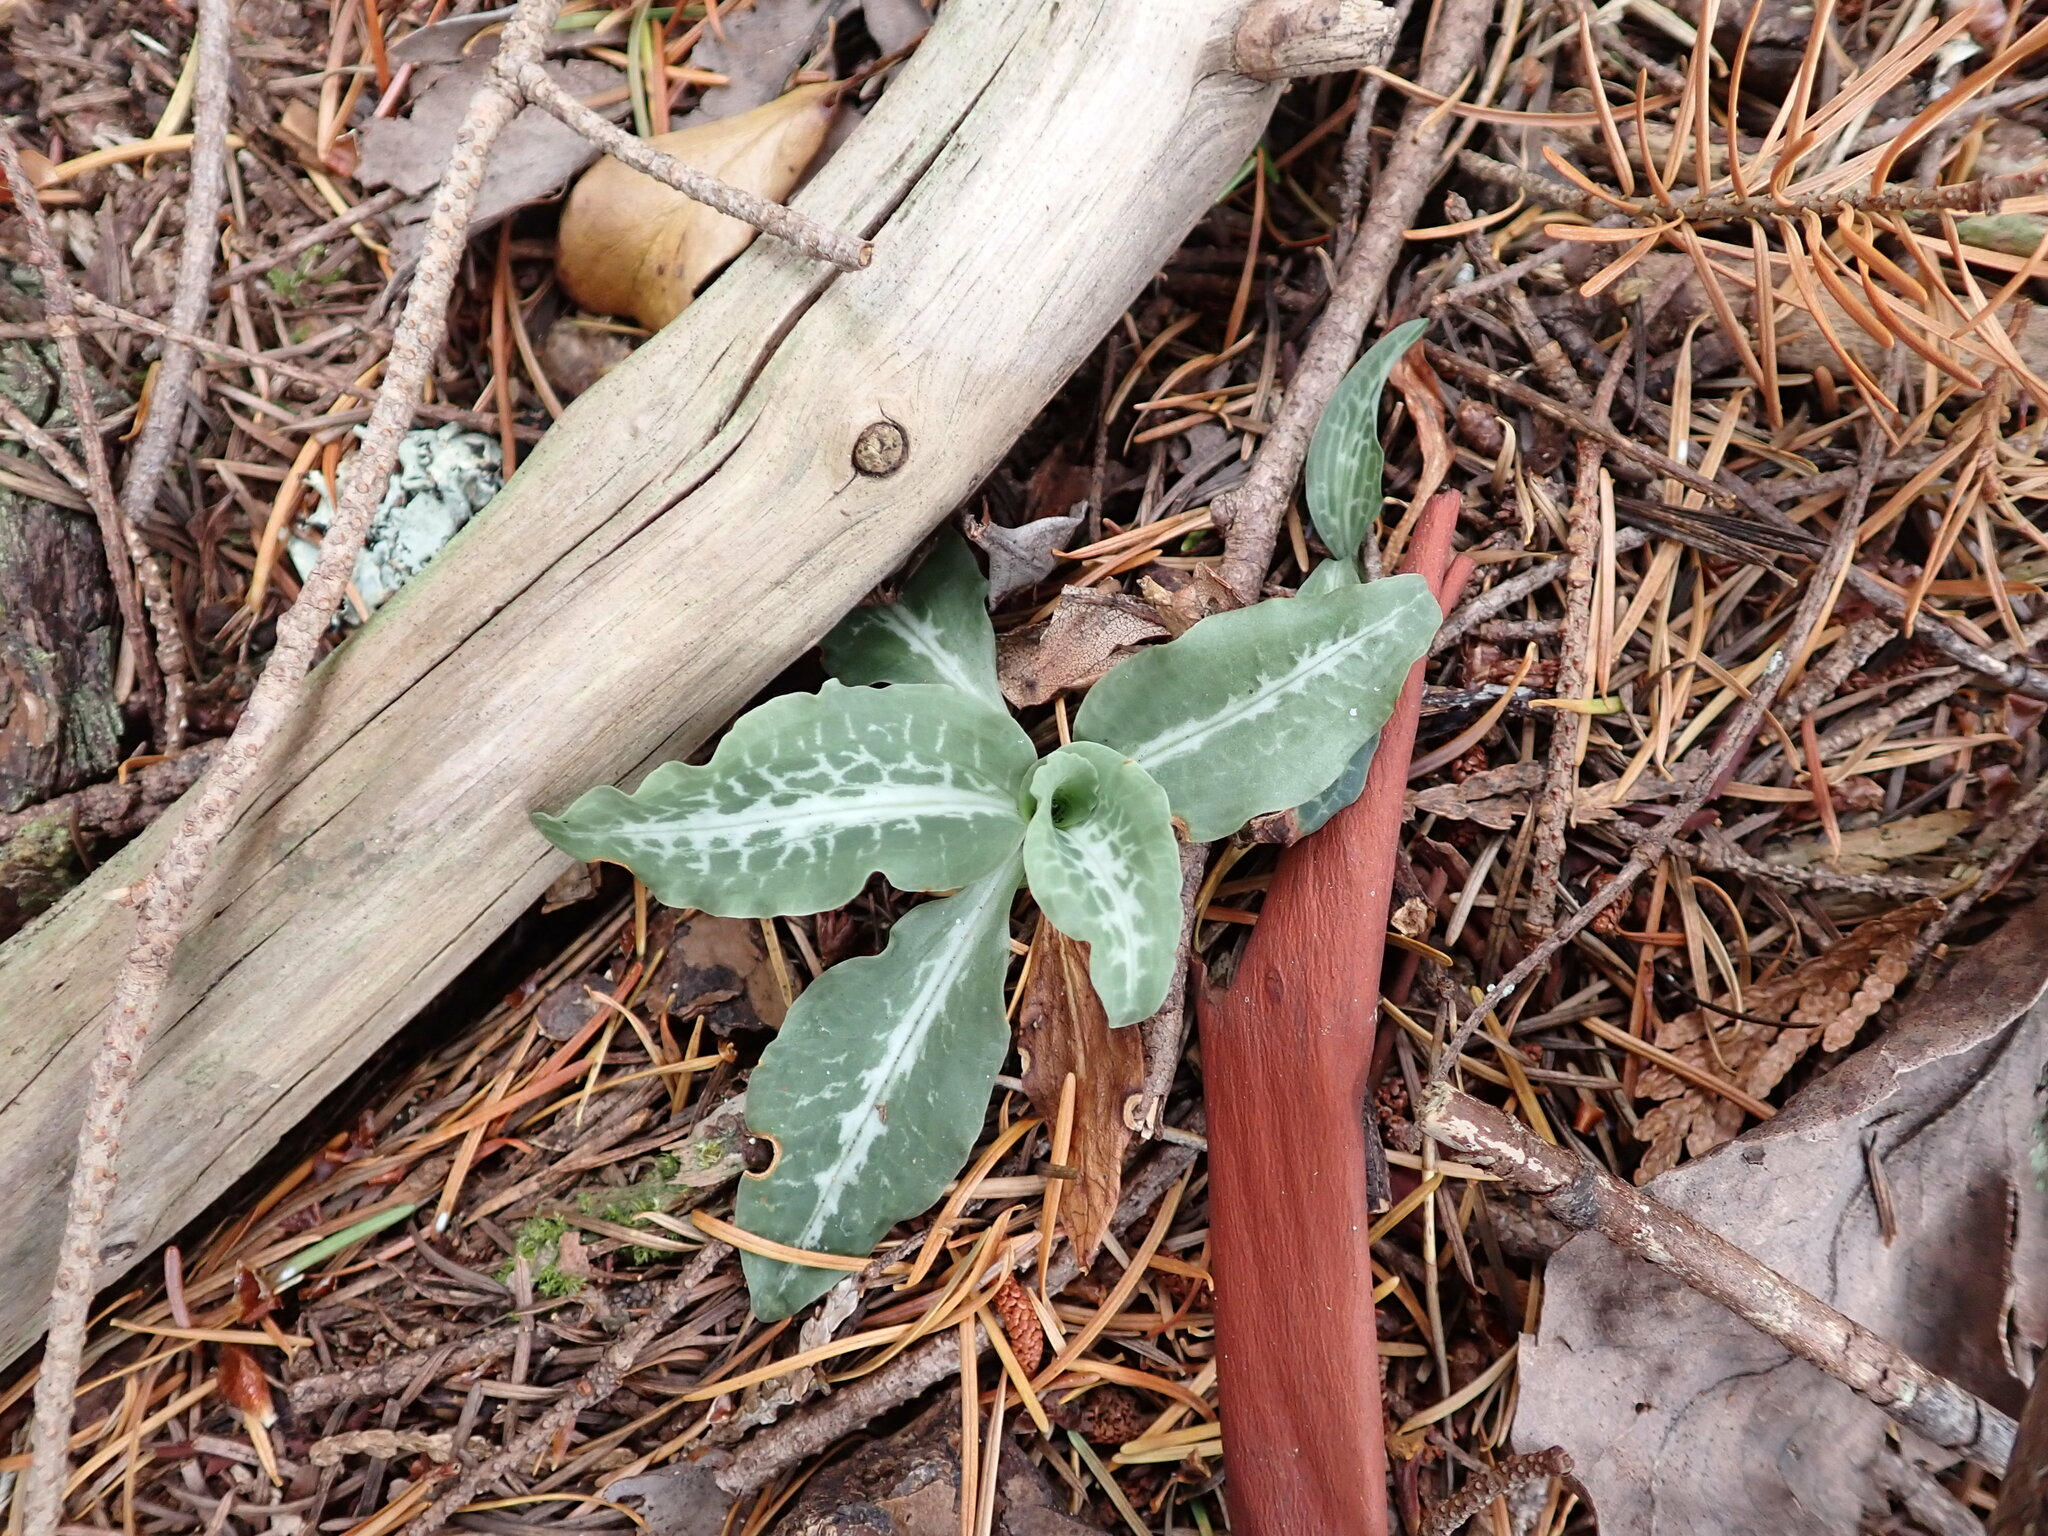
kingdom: Plantae
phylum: Tracheophyta
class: Liliopsida
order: Asparagales
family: Orchidaceae
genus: Goodyera
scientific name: Goodyera oblongifolia
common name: Giant rattlesnake-plantain
